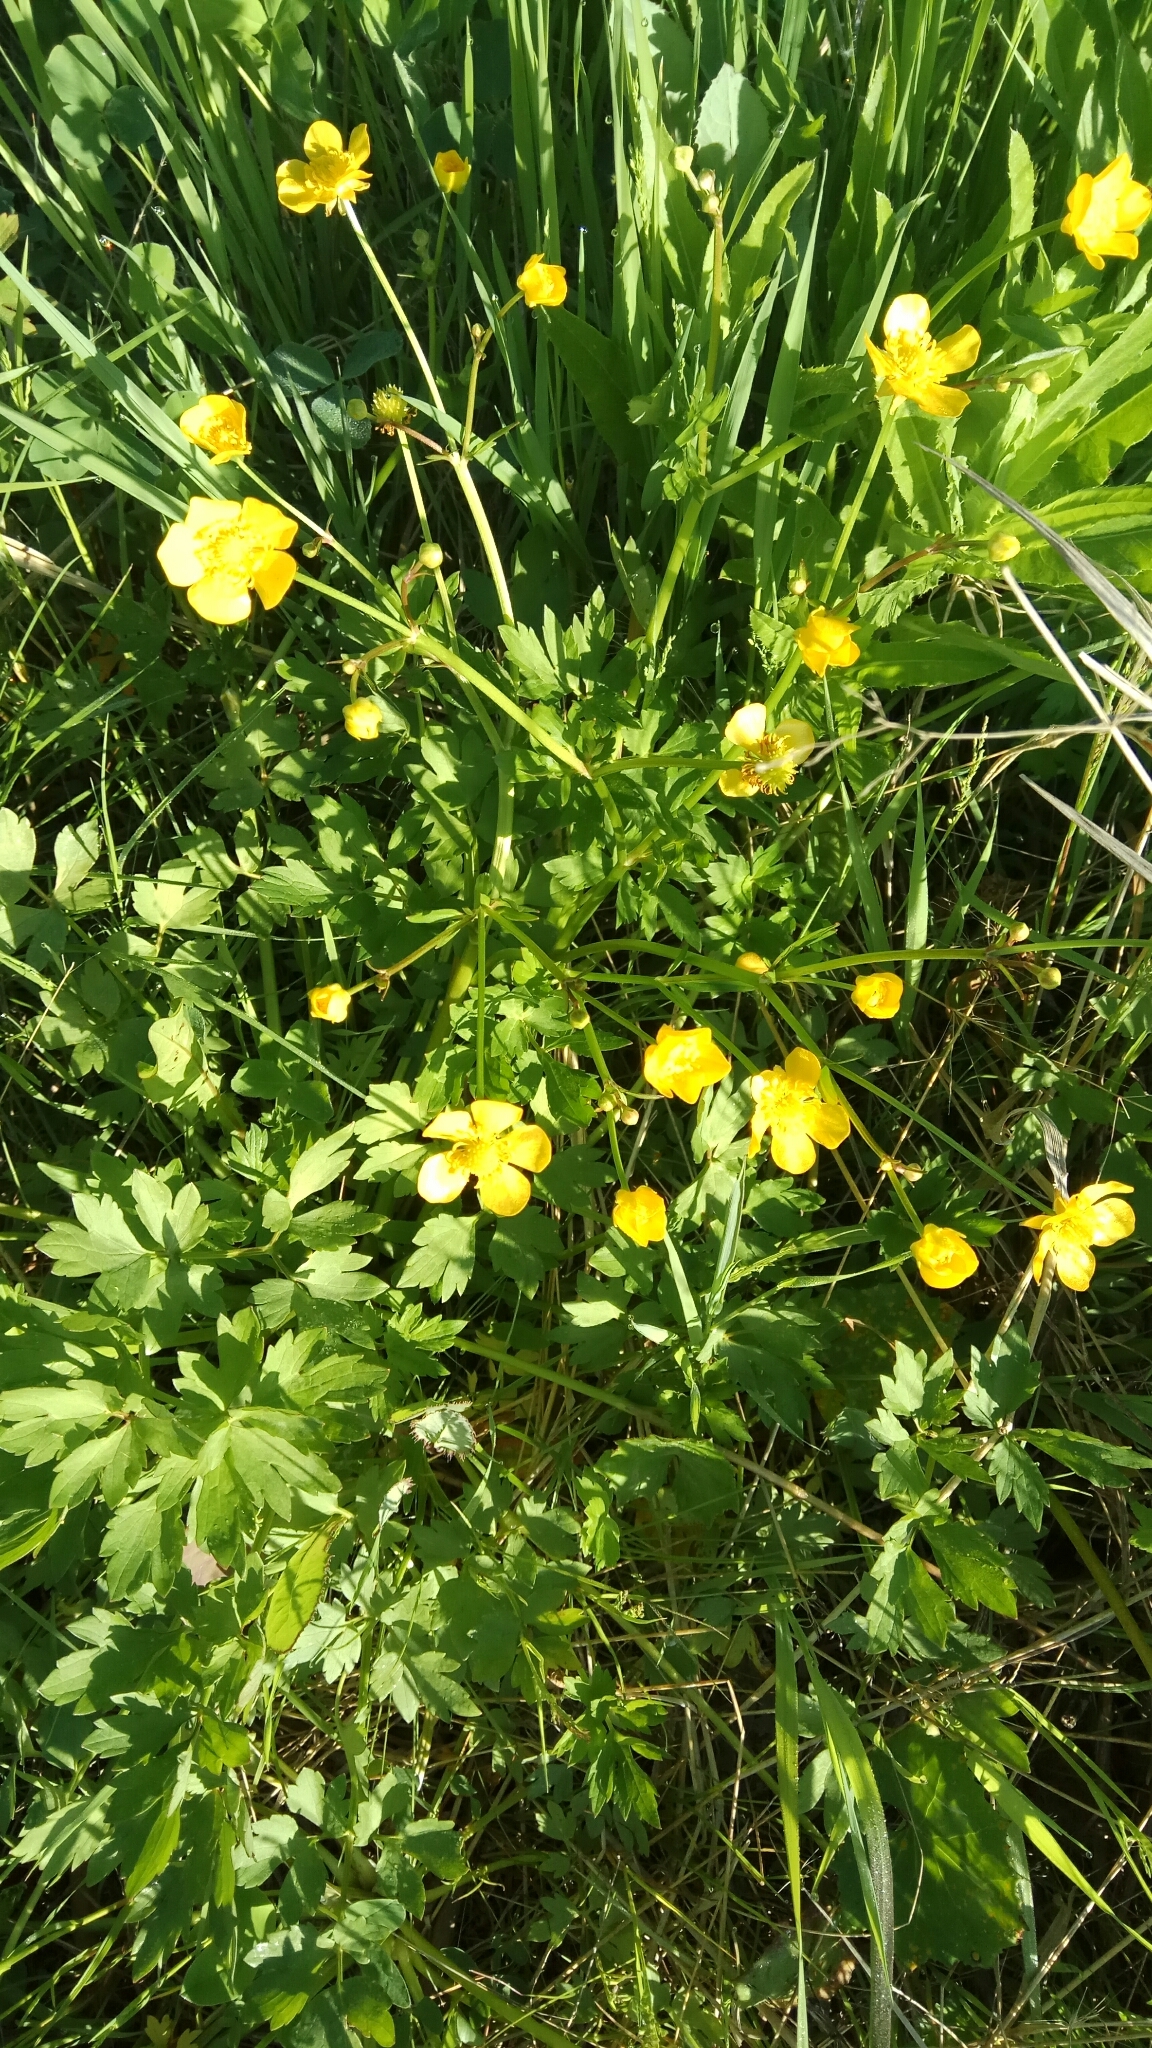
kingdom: Plantae
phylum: Tracheophyta
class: Magnoliopsida
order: Ranunculales
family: Ranunculaceae
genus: Ranunculus
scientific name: Ranunculus repens
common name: Creeping buttercup
